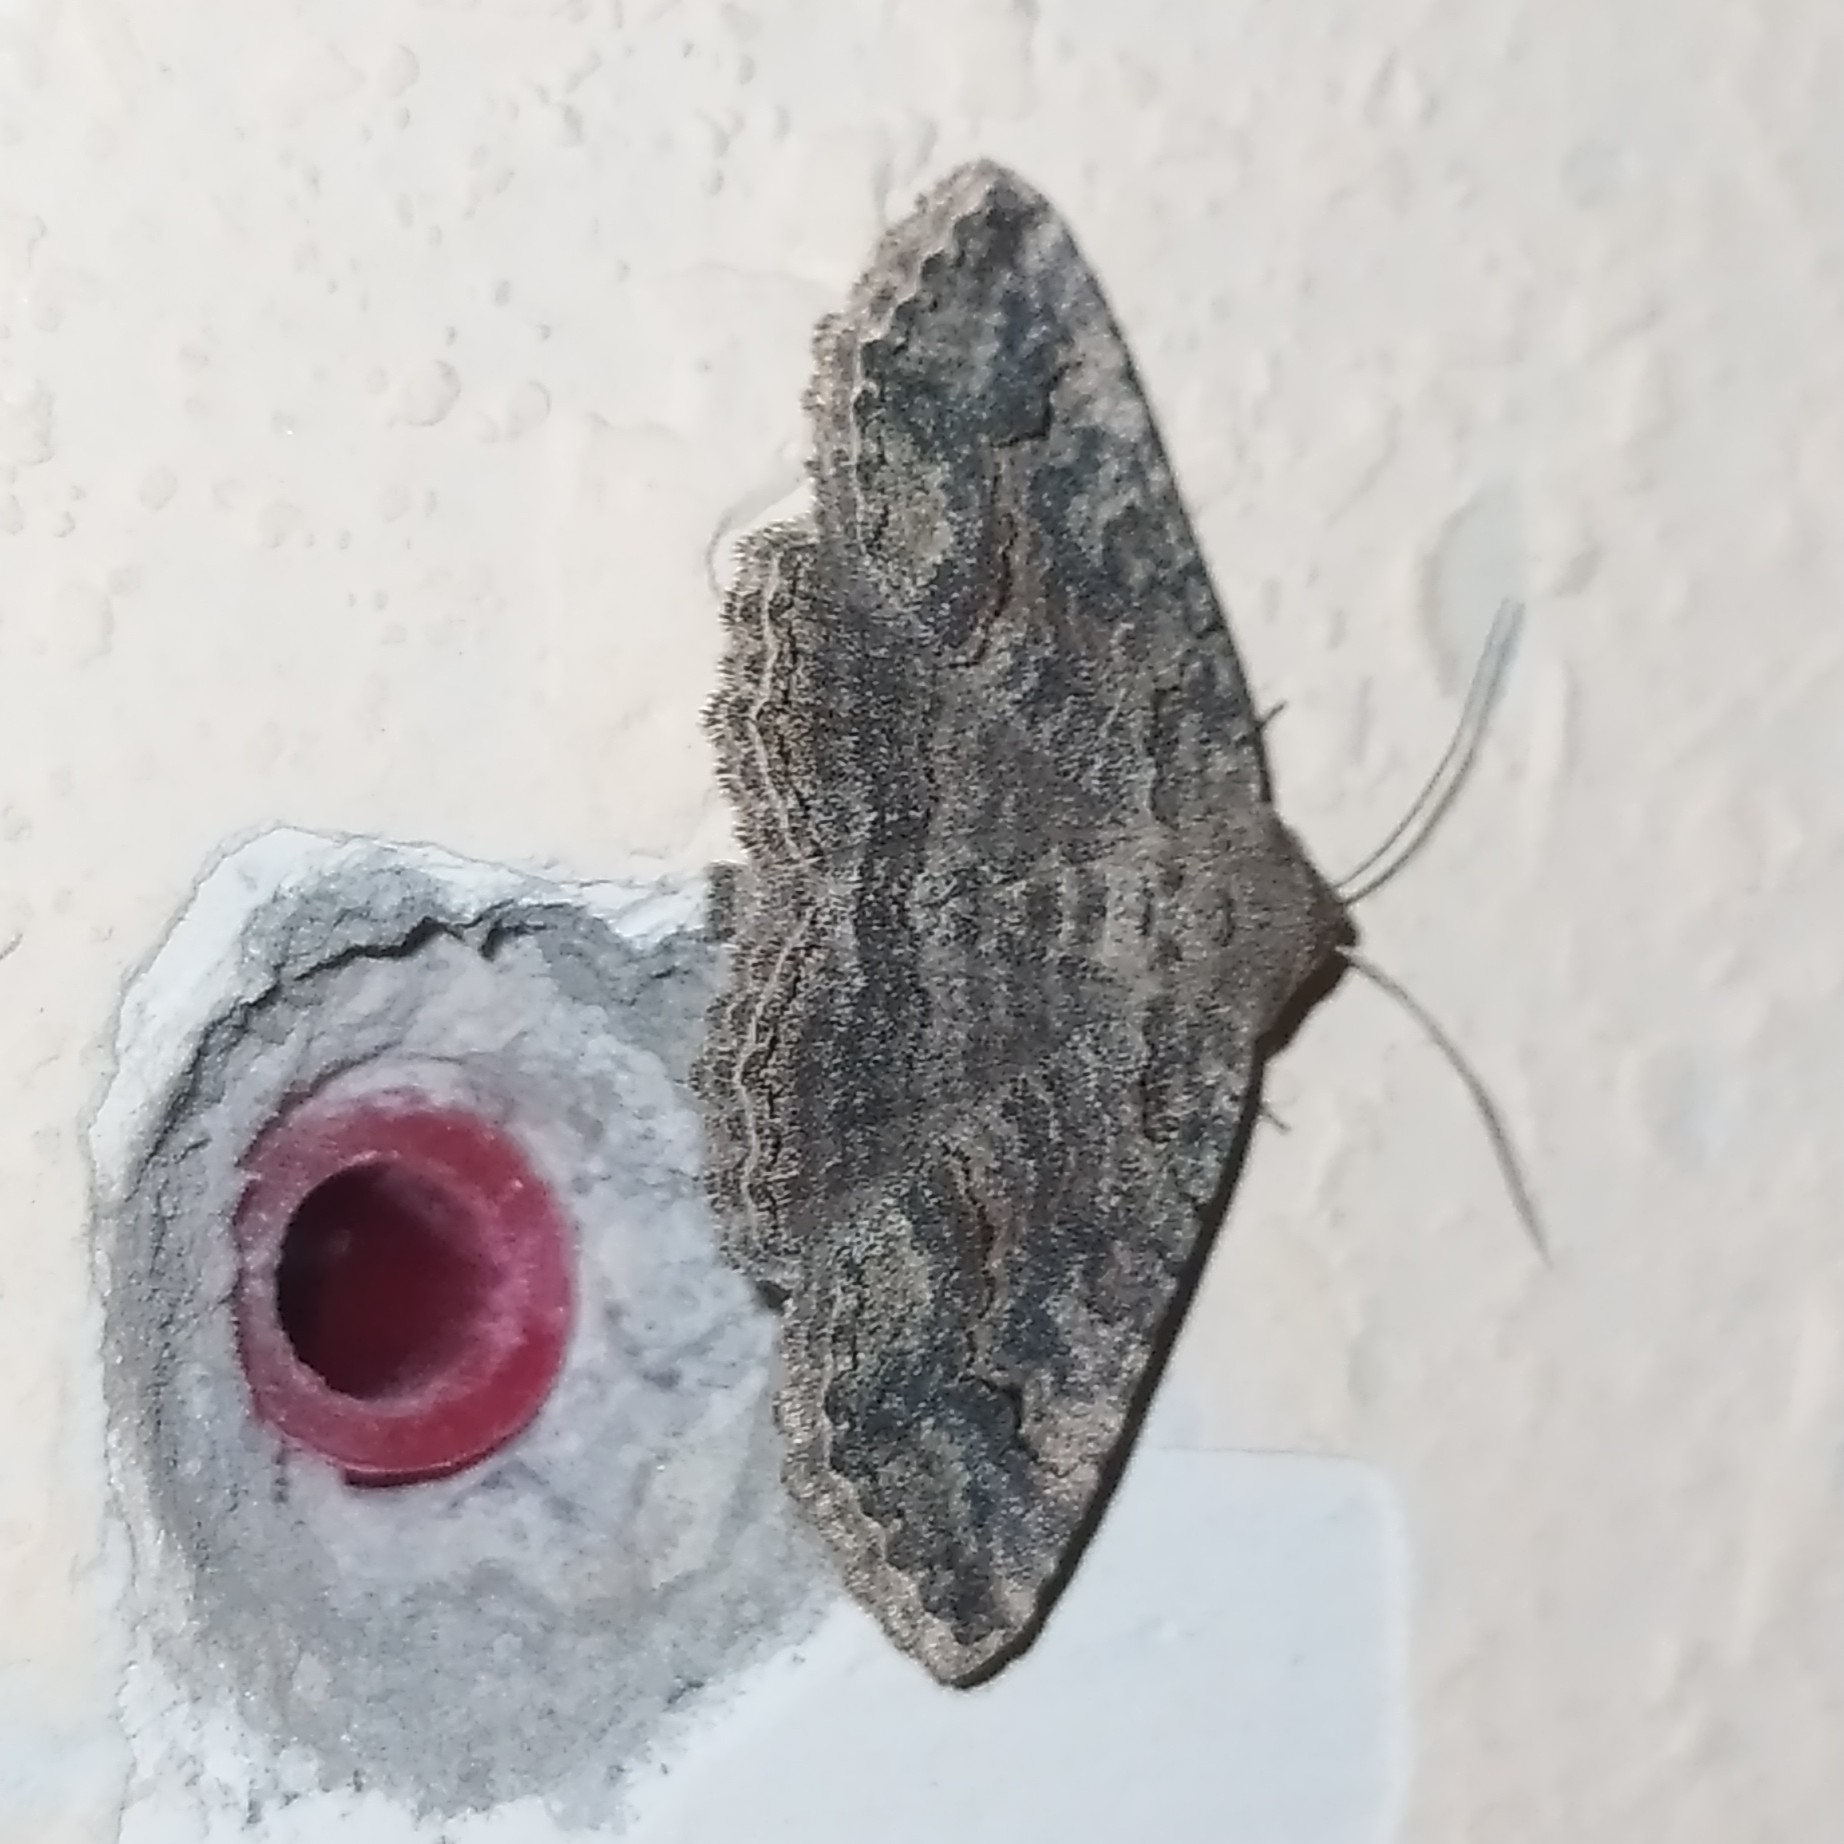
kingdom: Animalia
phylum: Arthropoda
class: Insecta
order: Lepidoptera
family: Erebidae
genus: Pericyma
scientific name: Pericyma albidentaria
